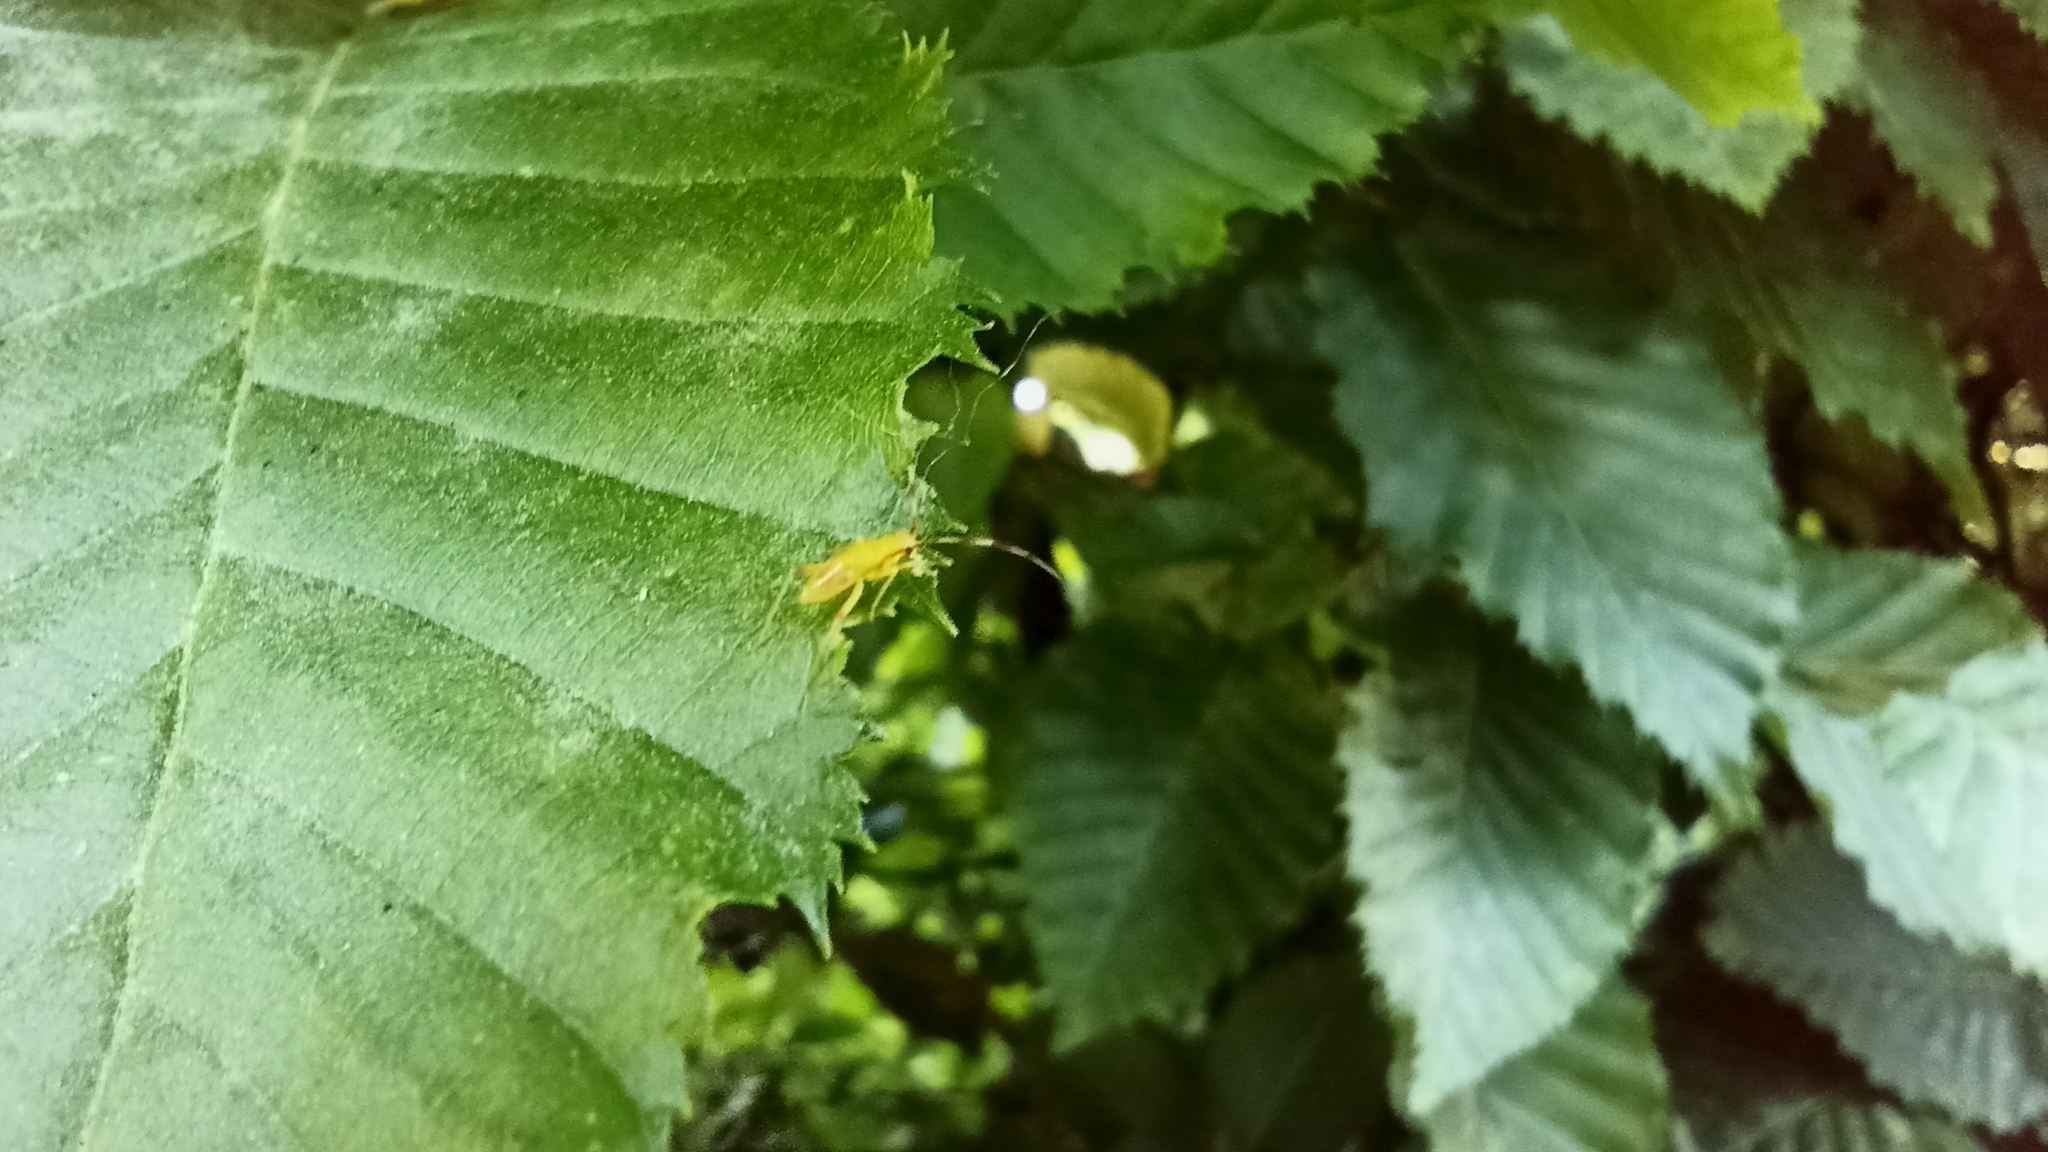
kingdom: Animalia
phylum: Arthropoda
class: Insecta
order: Hemiptera
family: Miridae
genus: Campyloneura
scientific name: Campyloneura virgula
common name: Predatory bug
